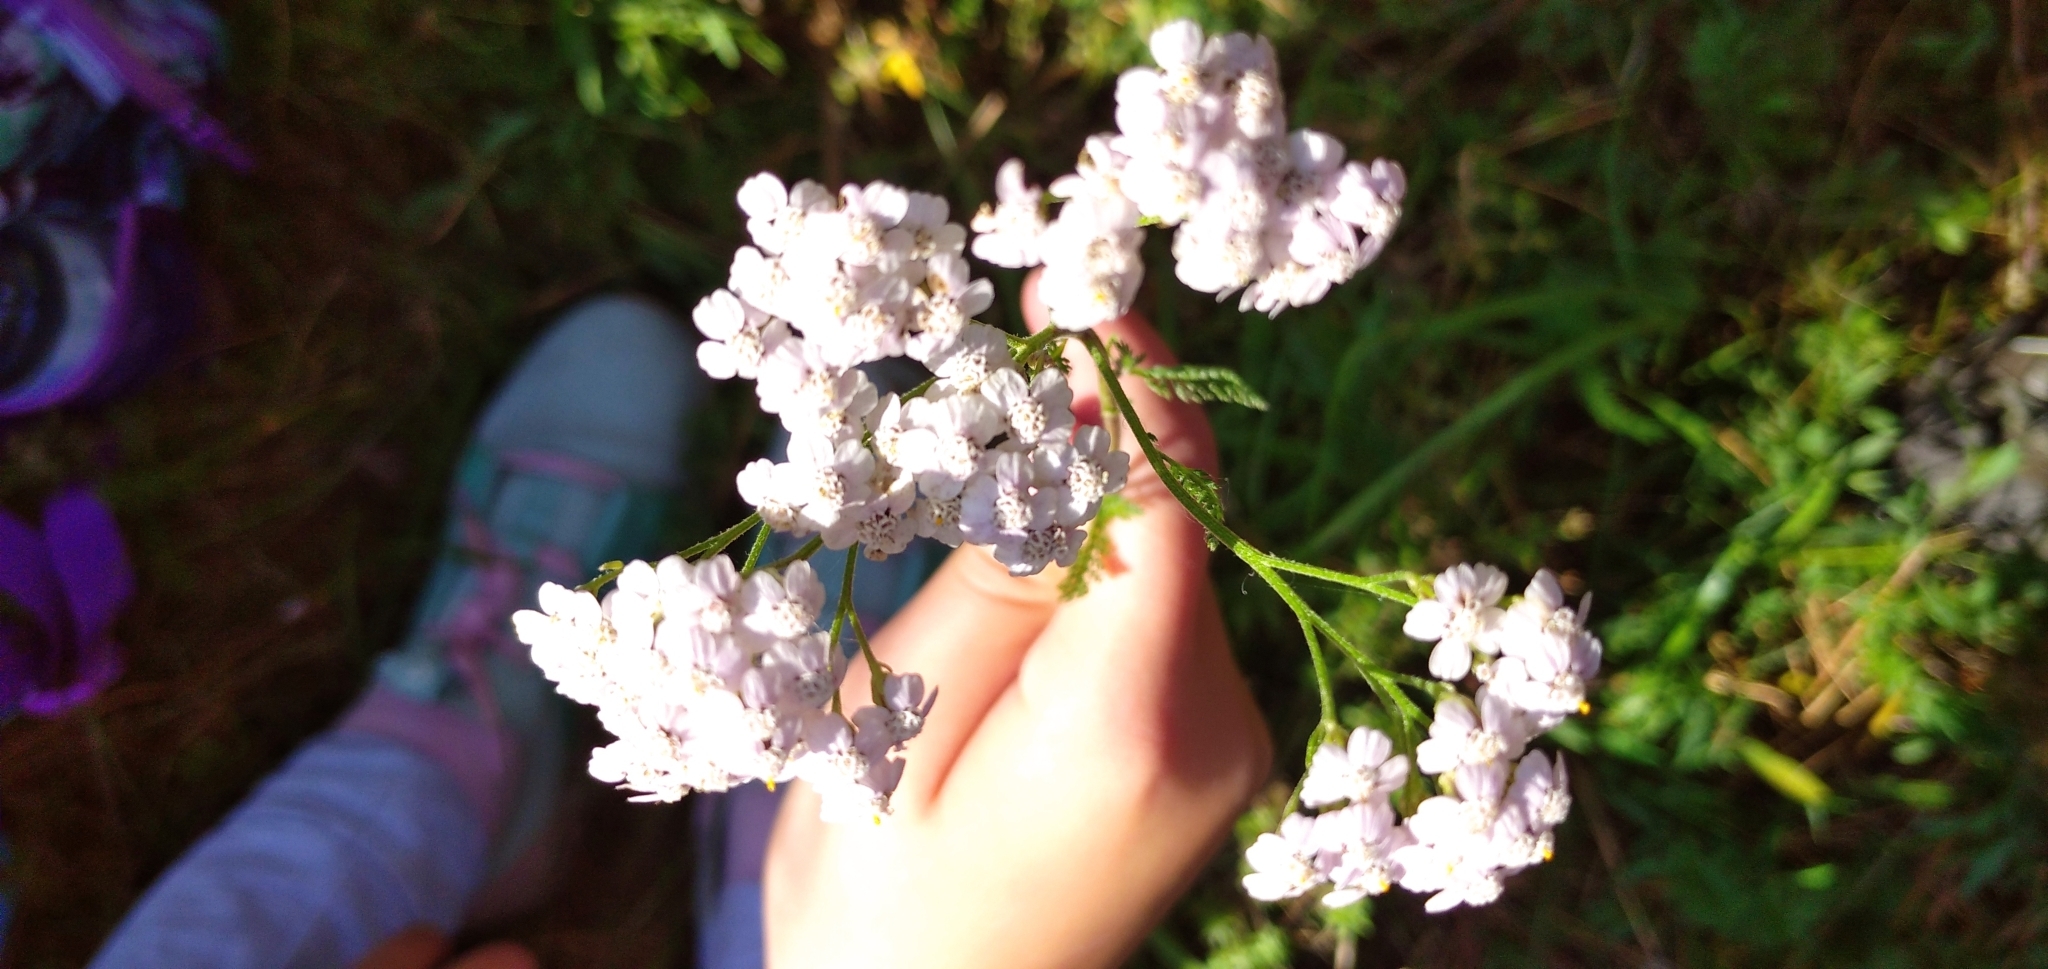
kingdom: Plantae
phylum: Tracheophyta
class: Magnoliopsida
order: Asterales
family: Asteraceae
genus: Achillea
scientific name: Achillea
